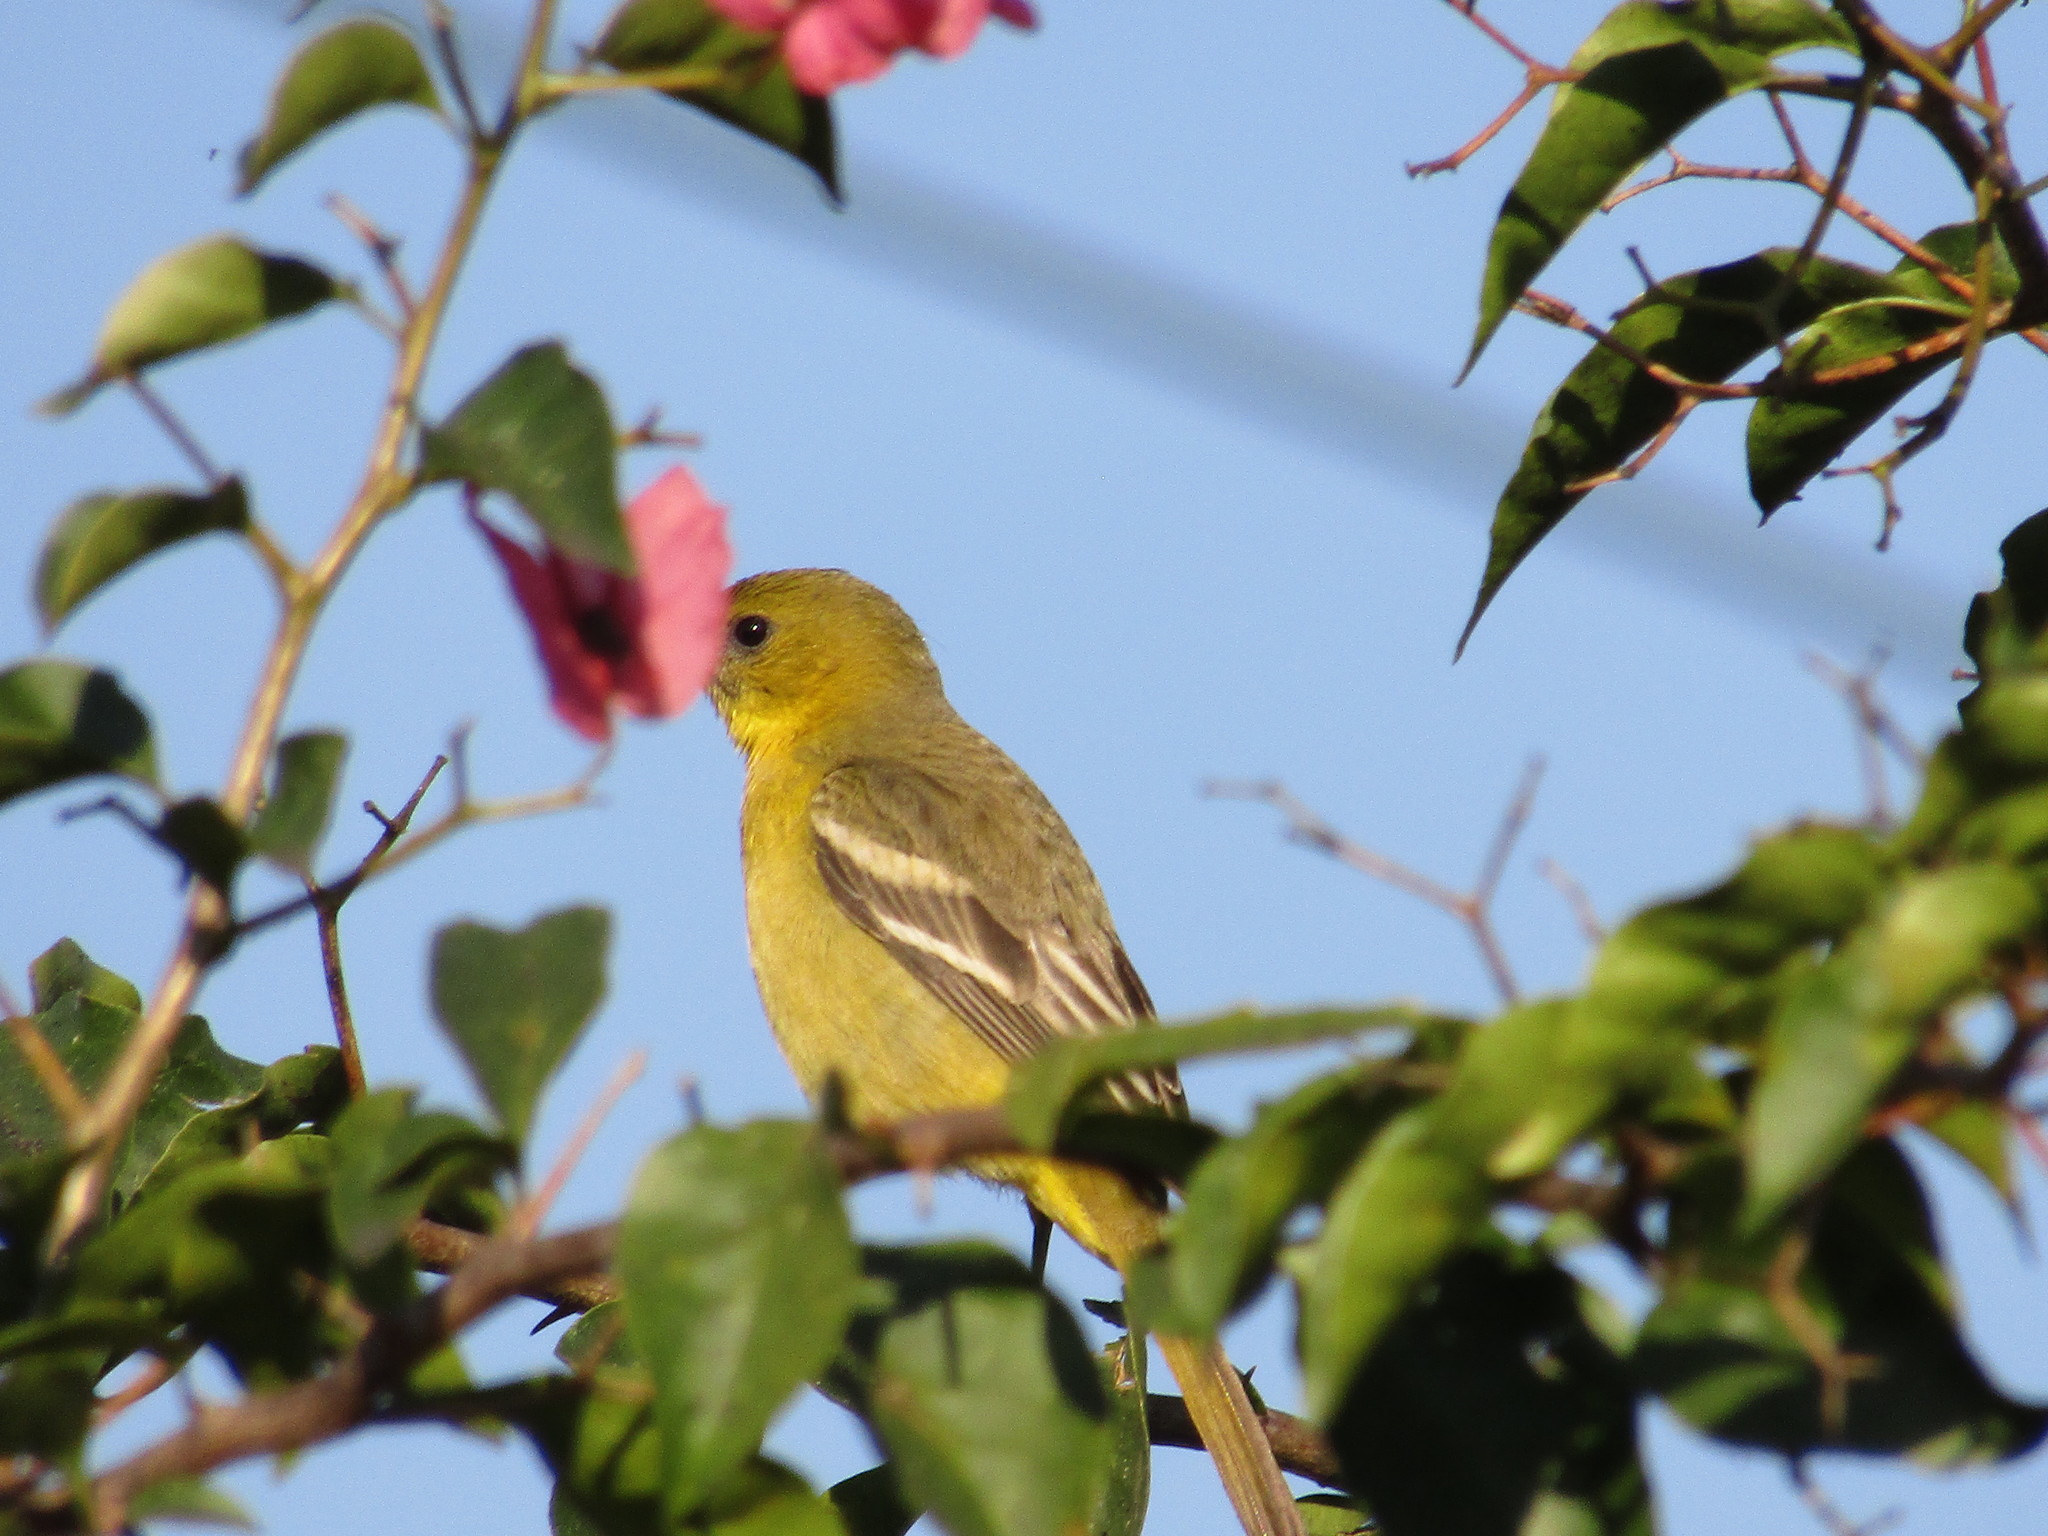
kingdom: Animalia
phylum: Chordata
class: Aves
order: Passeriformes
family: Icteridae
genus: Icterus
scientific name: Icterus spurius
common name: Orchard oriole
